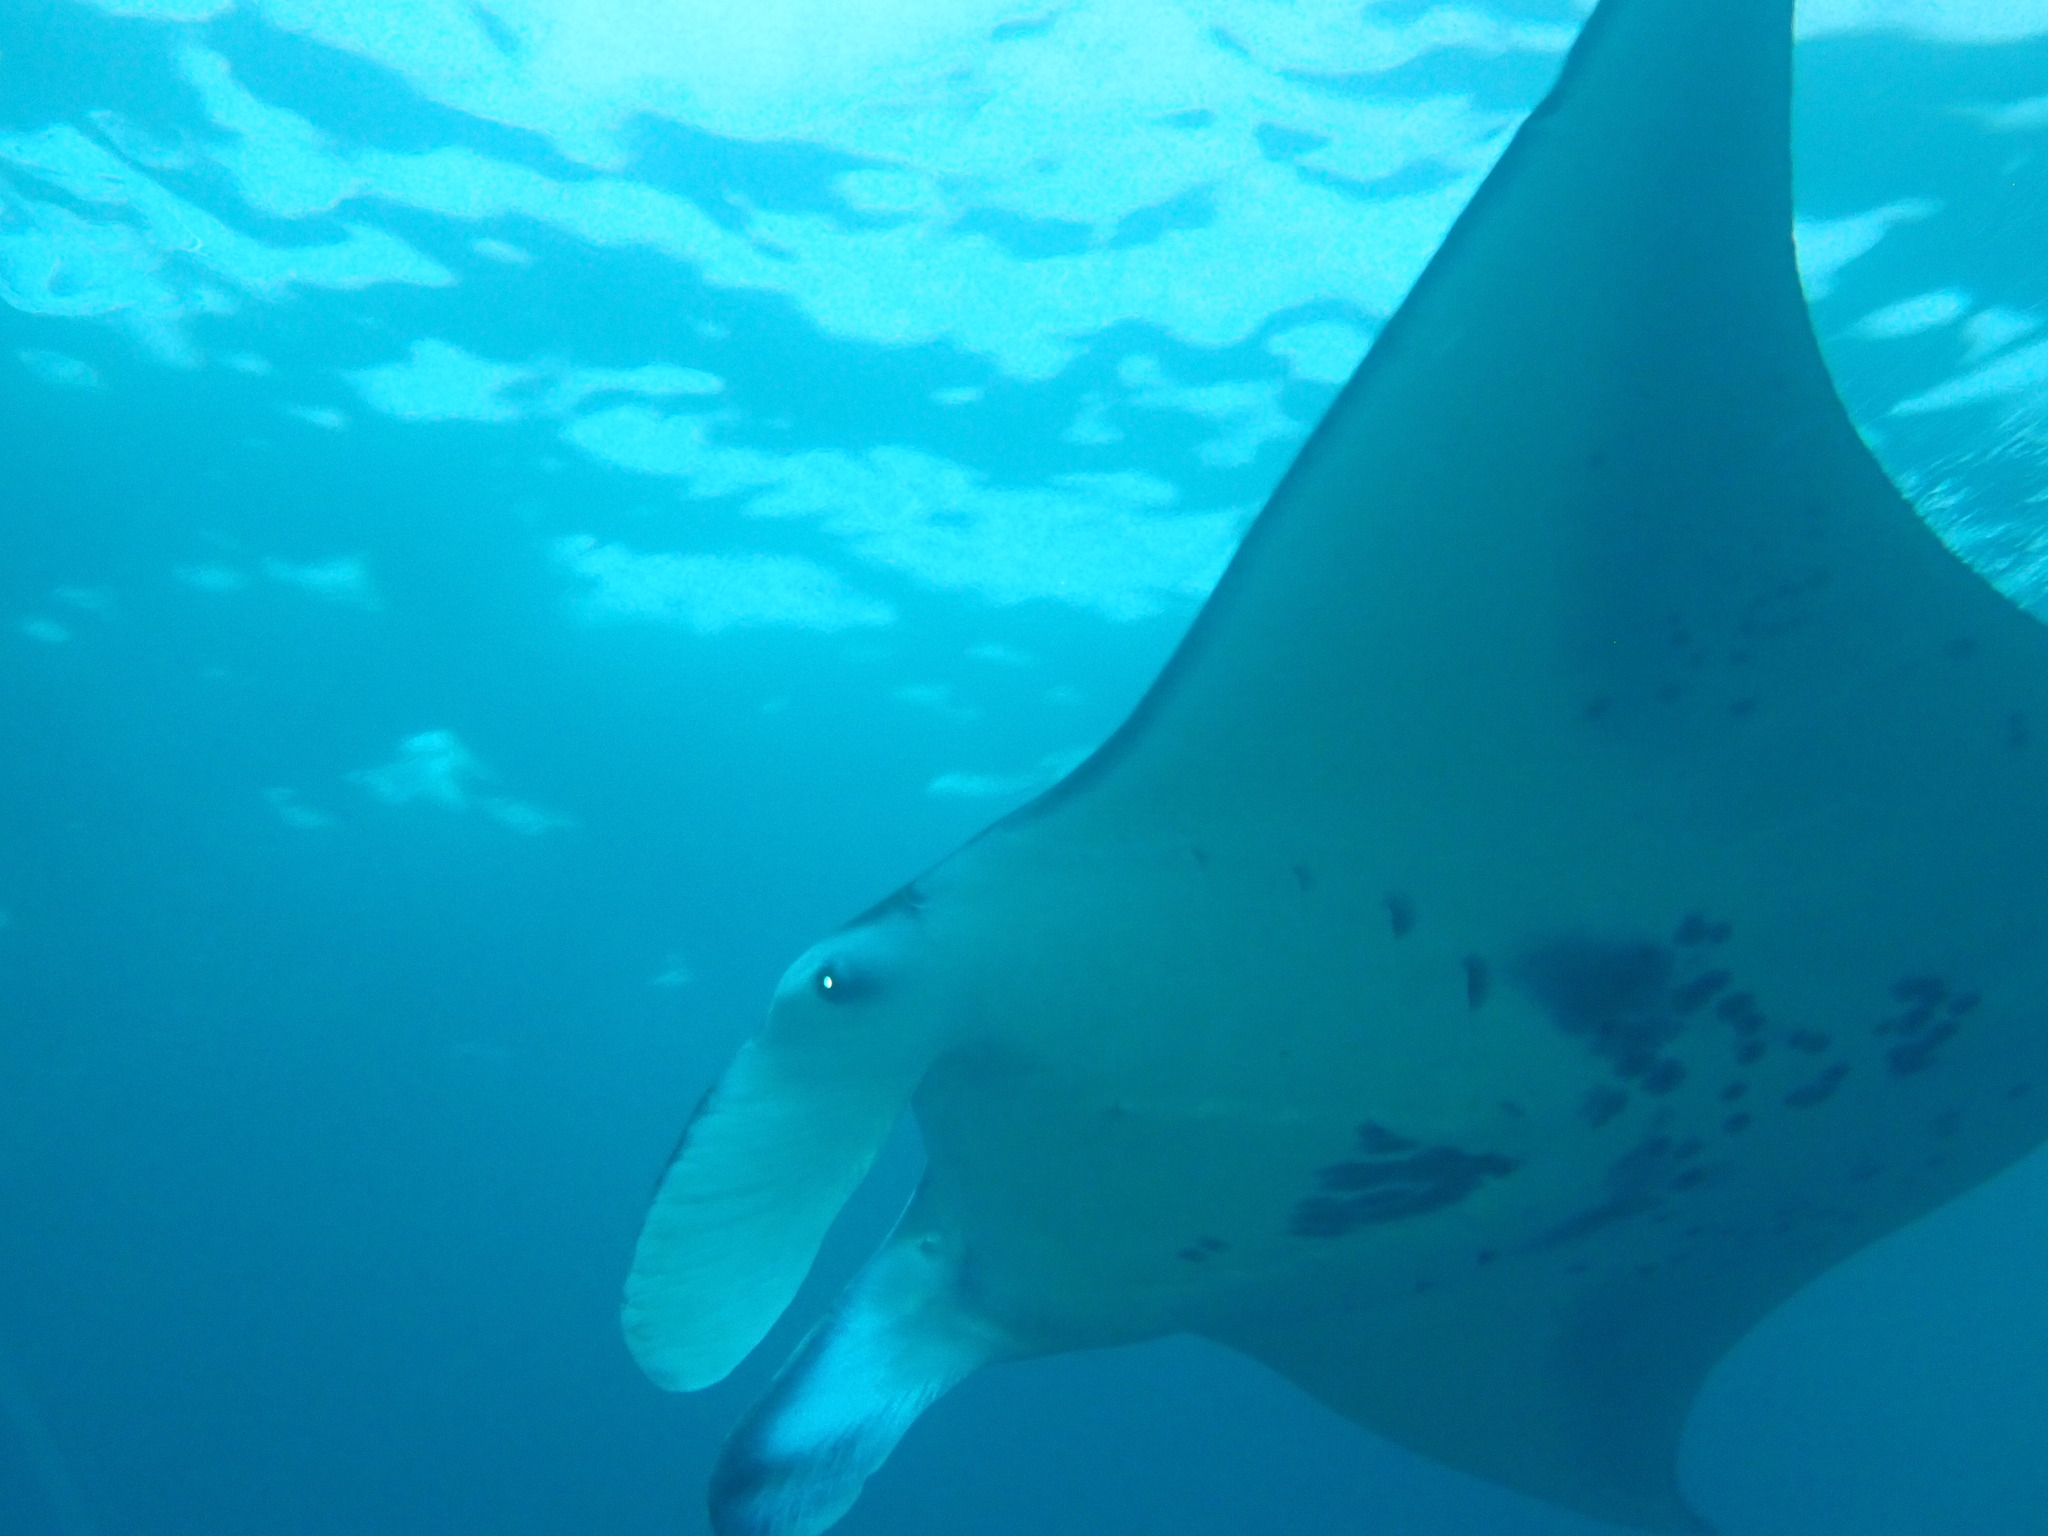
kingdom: Animalia
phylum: Chordata
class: Elasmobranchii
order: Myliobatiformes
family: Myliobatidae
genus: Mobula
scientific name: Mobula alfredi
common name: Reef manta ray
